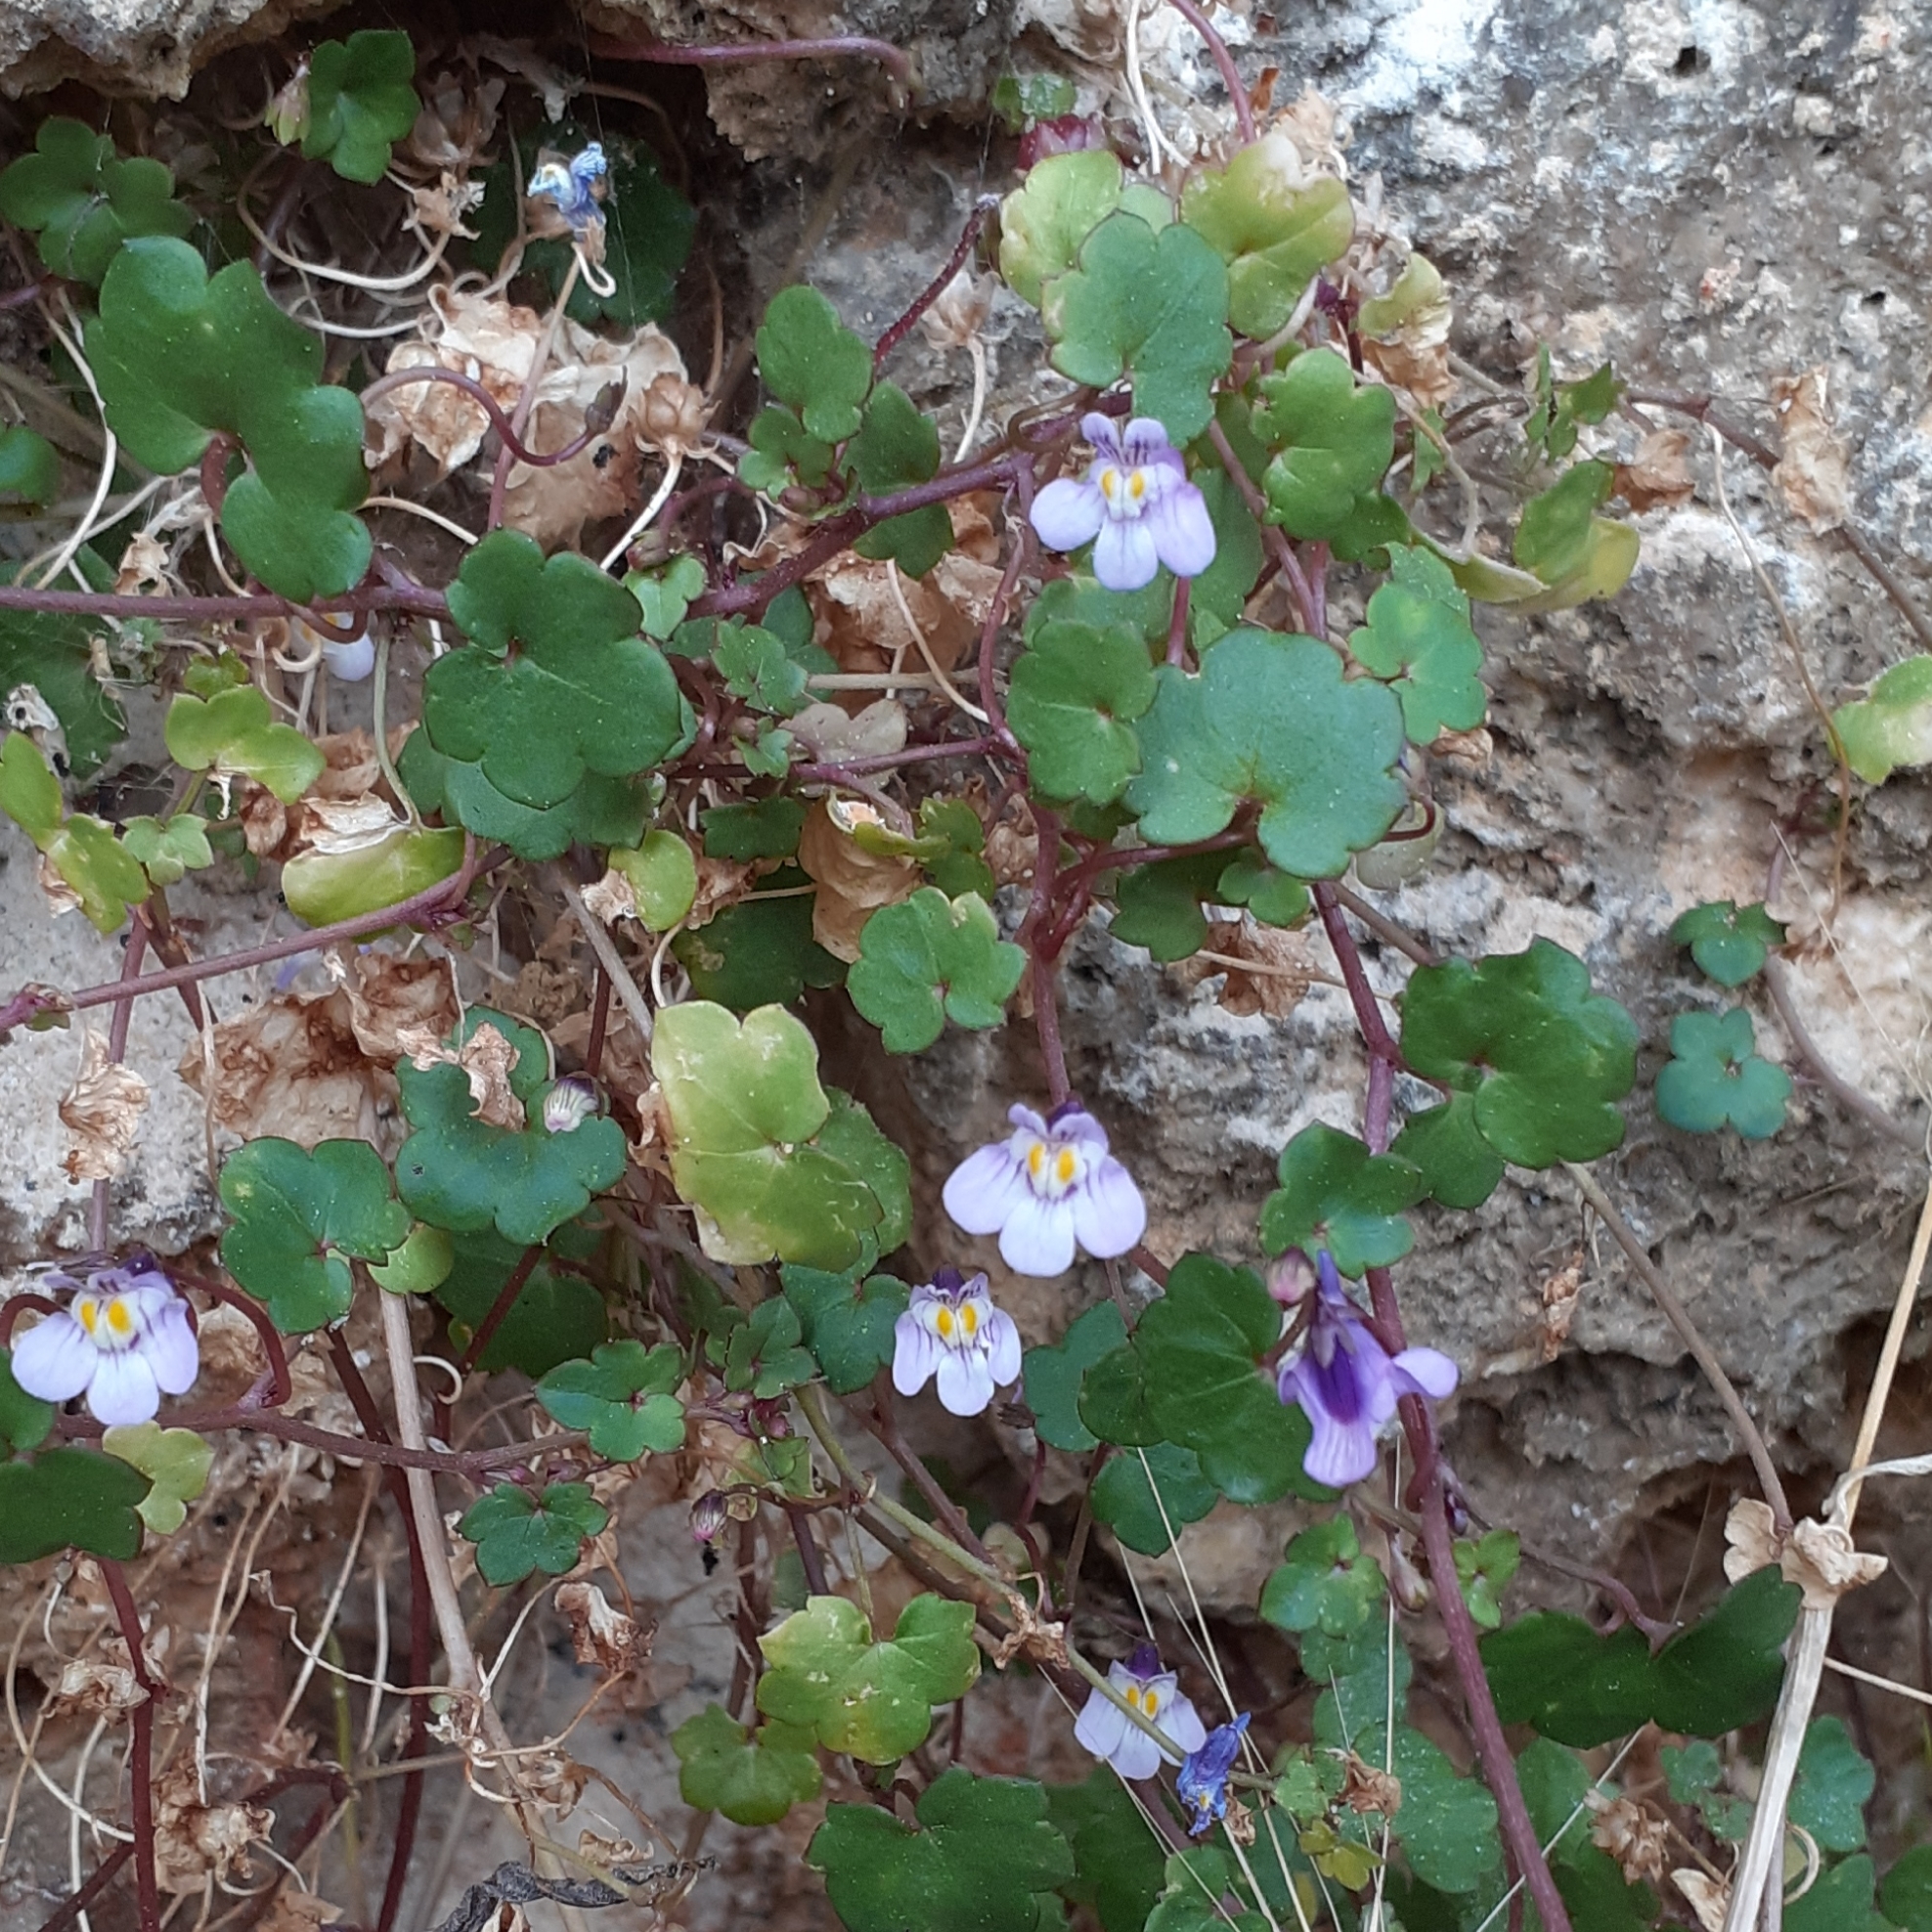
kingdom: Plantae
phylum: Tracheophyta
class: Magnoliopsida
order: Lamiales
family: Plantaginaceae
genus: Cymbalaria
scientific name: Cymbalaria muralis
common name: Ivy-leaved toadflax
